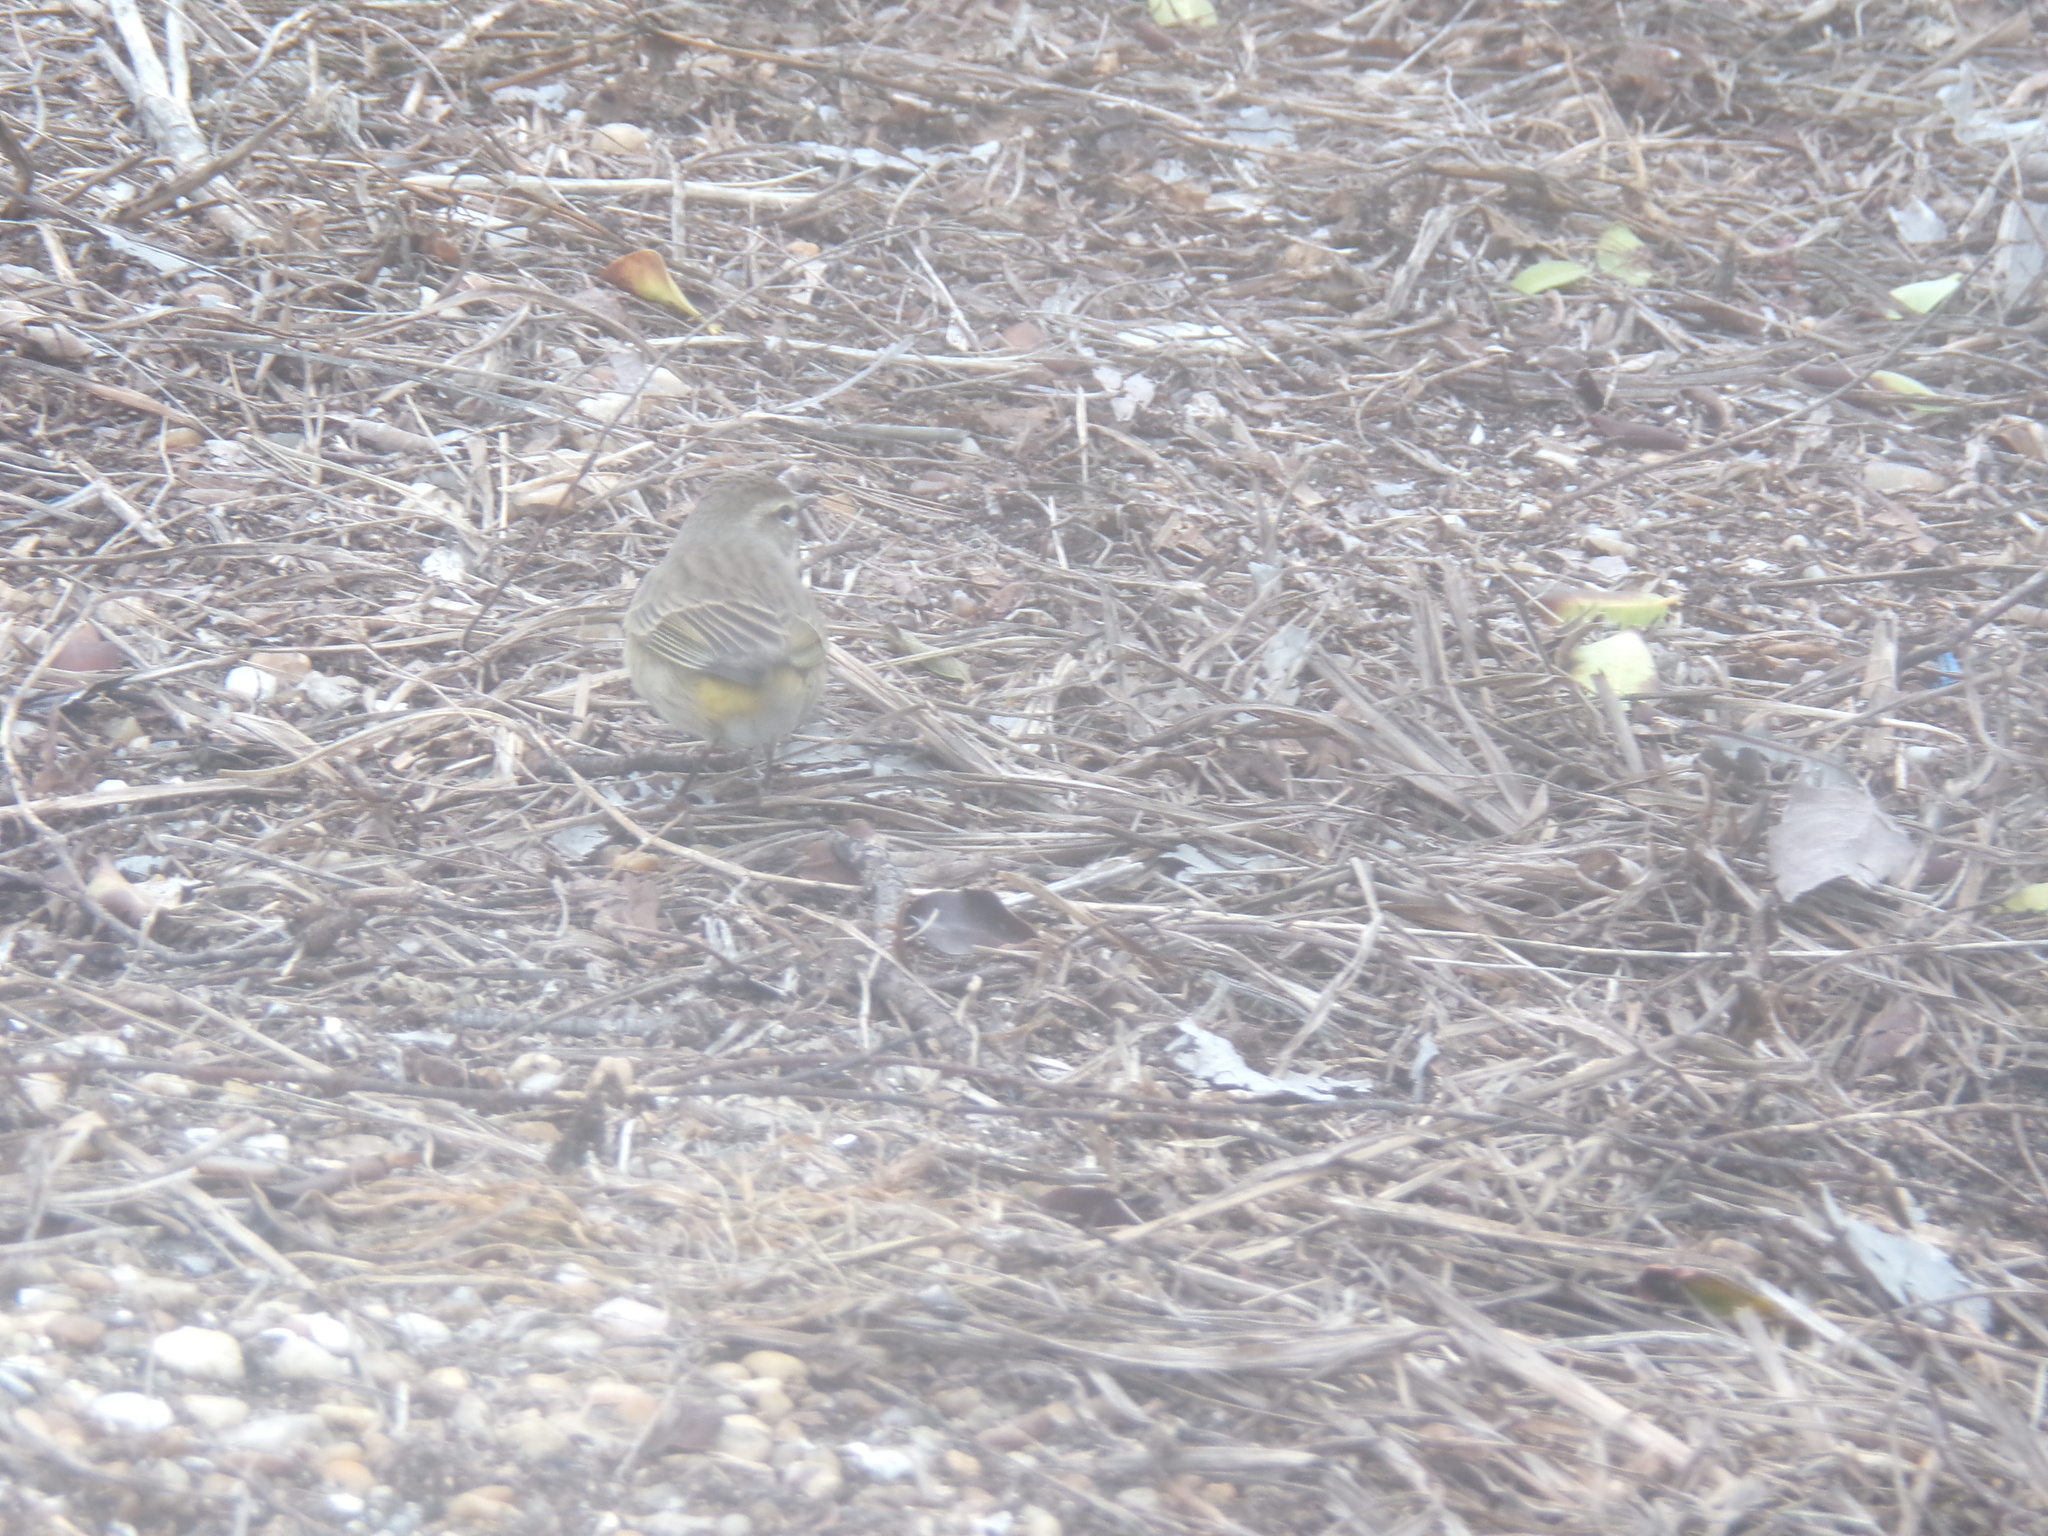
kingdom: Animalia
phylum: Chordata
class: Aves
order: Passeriformes
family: Parulidae
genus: Setophaga
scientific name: Setophaga palmarum
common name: Palm warbler
